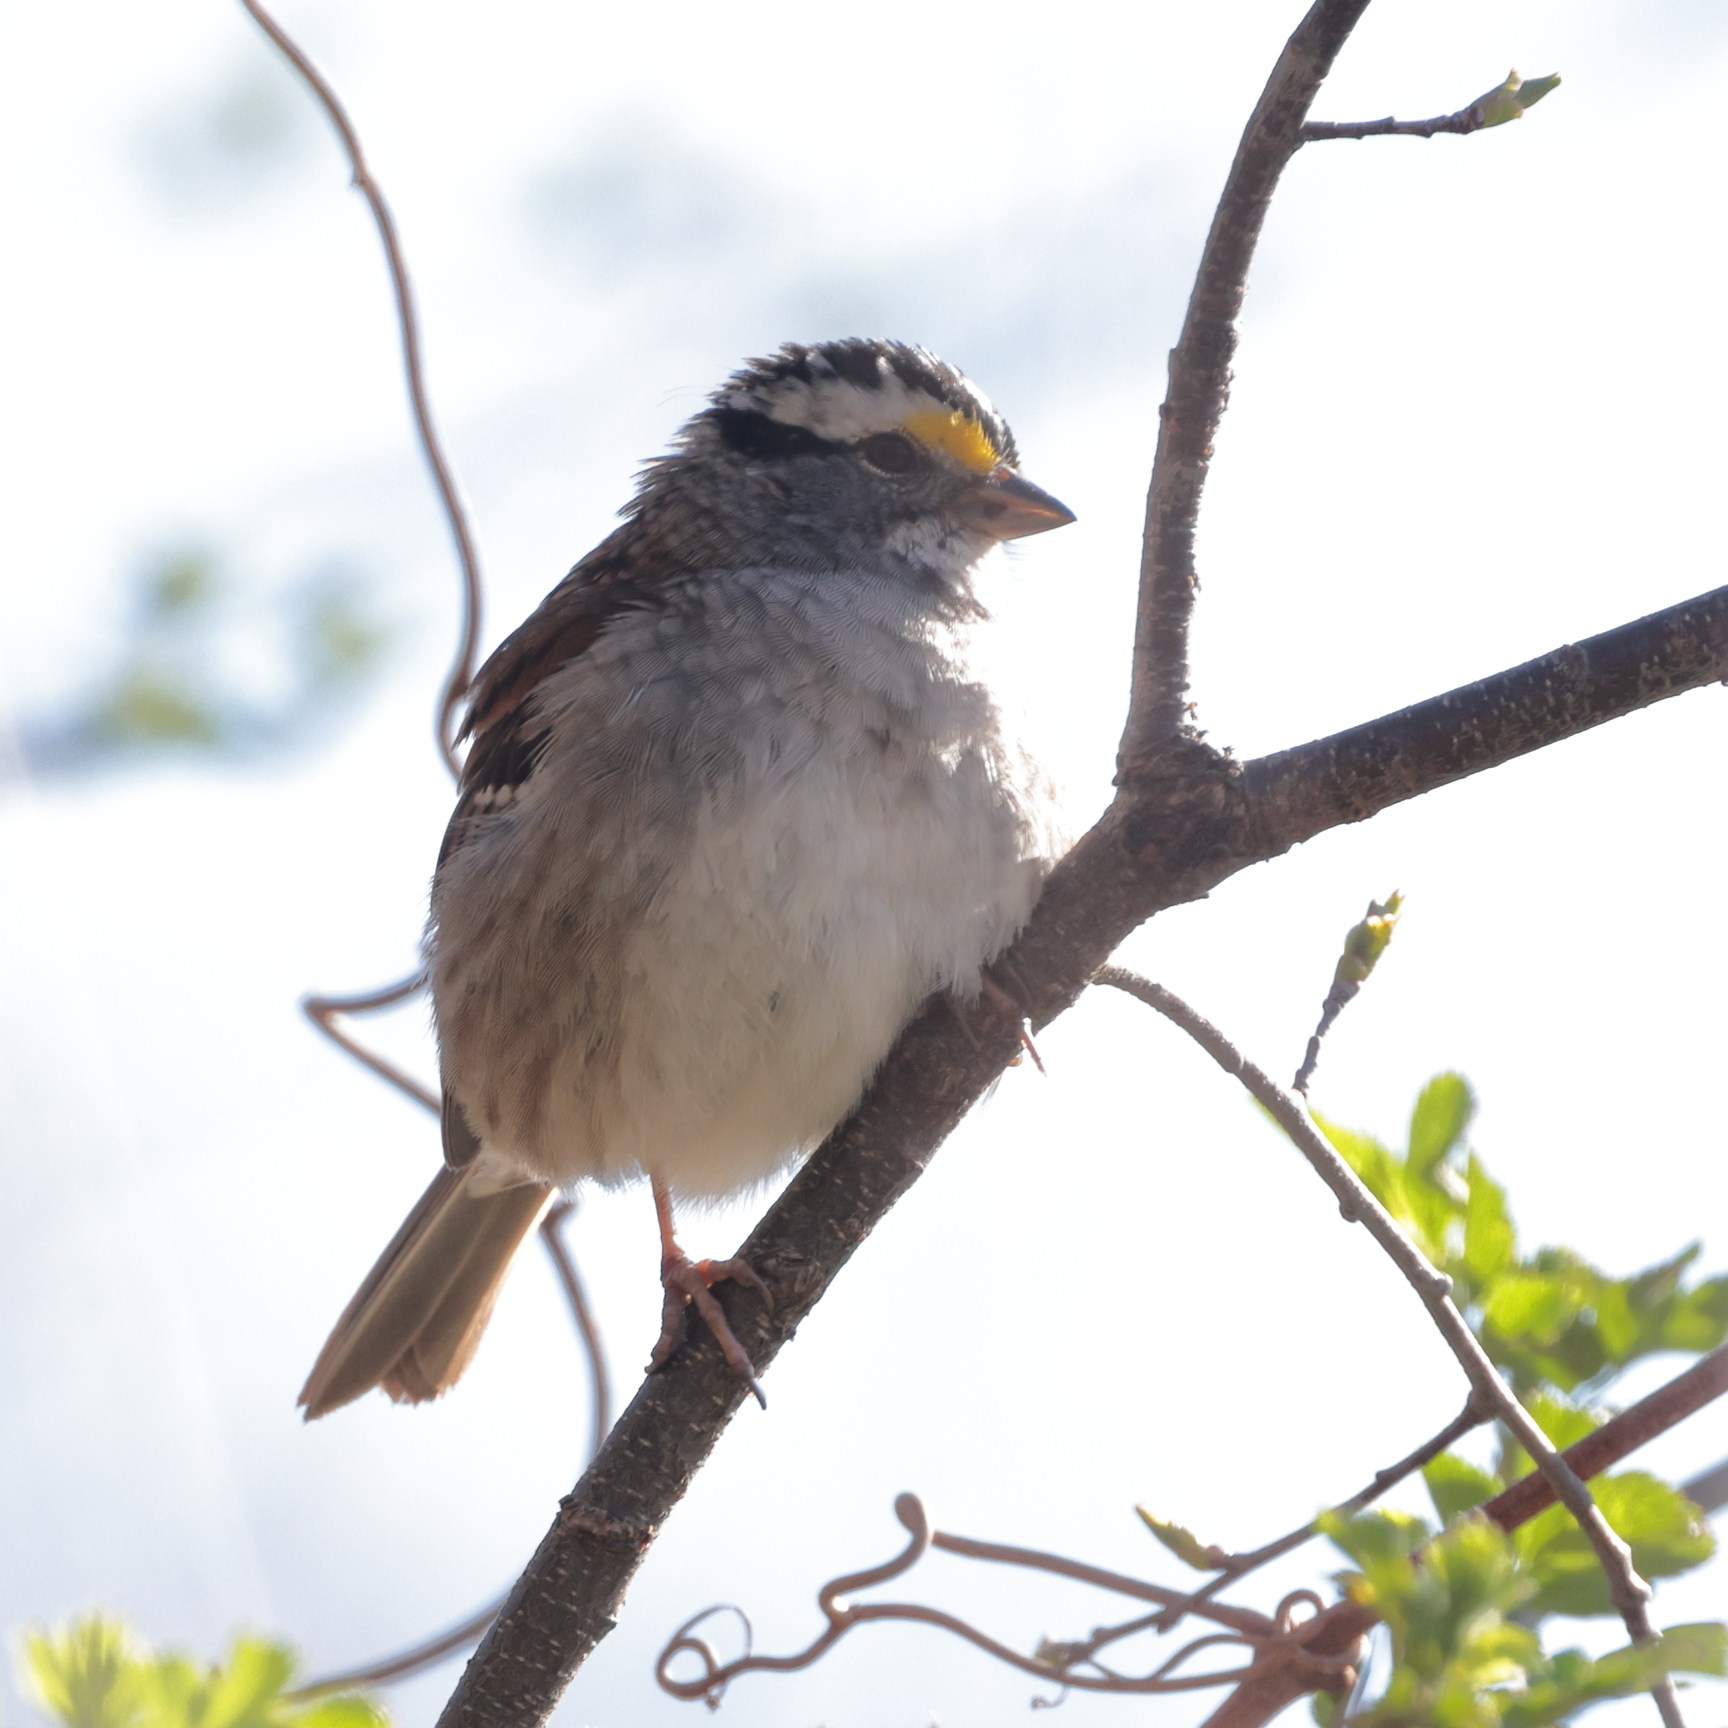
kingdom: Animalia
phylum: Chordata
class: Aves
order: Passeriformes
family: Passerellidae
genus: Zonotrichia
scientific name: Zonotrichia albicollis
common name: White-throated sparrow
